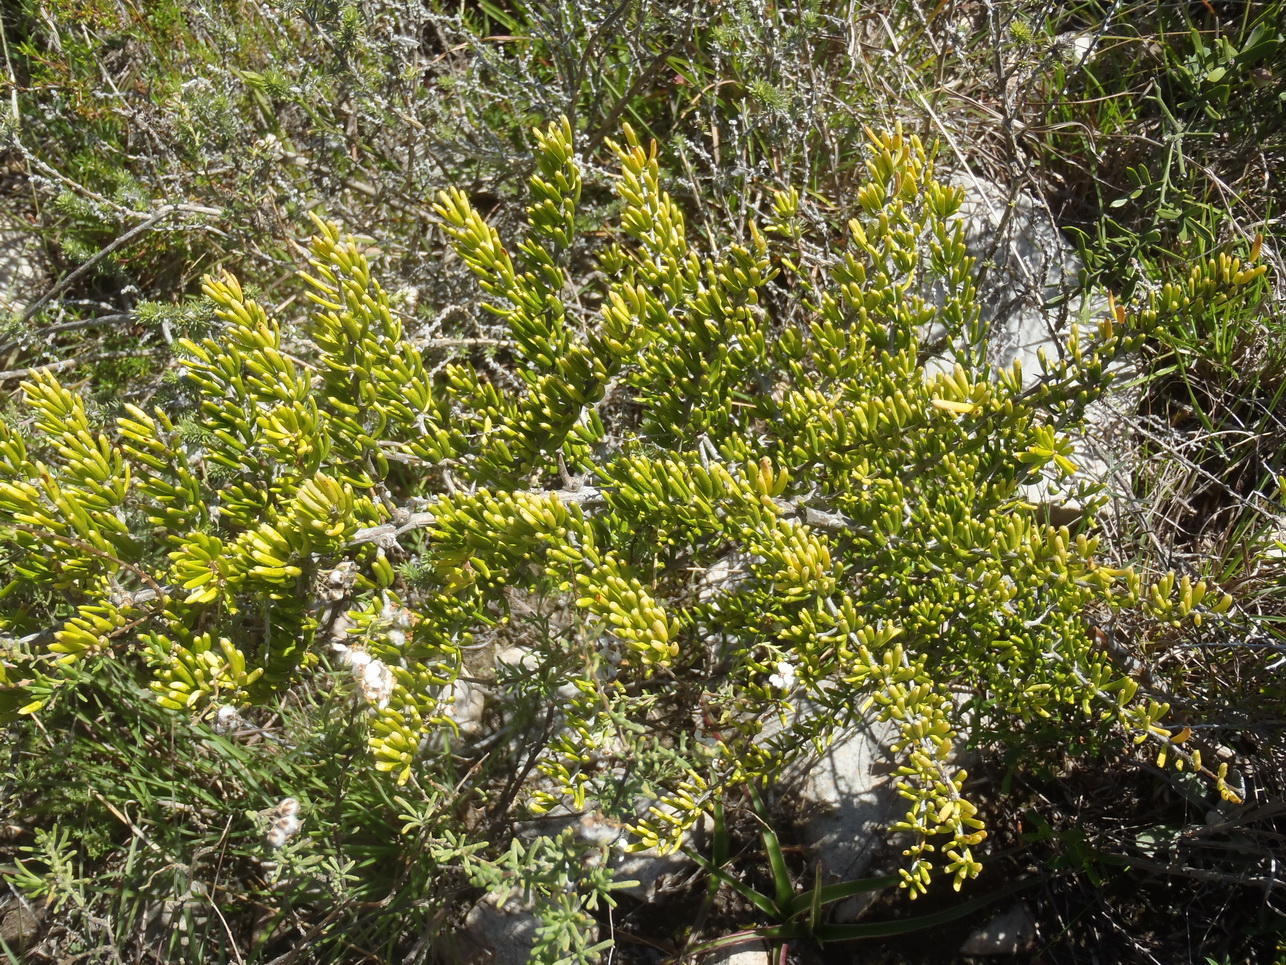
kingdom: Plantae
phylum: Tracheophyta
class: Liliopsida
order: Asparagales
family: Asparagaceae
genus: Asparagus
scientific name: Asparagus crassicladus
